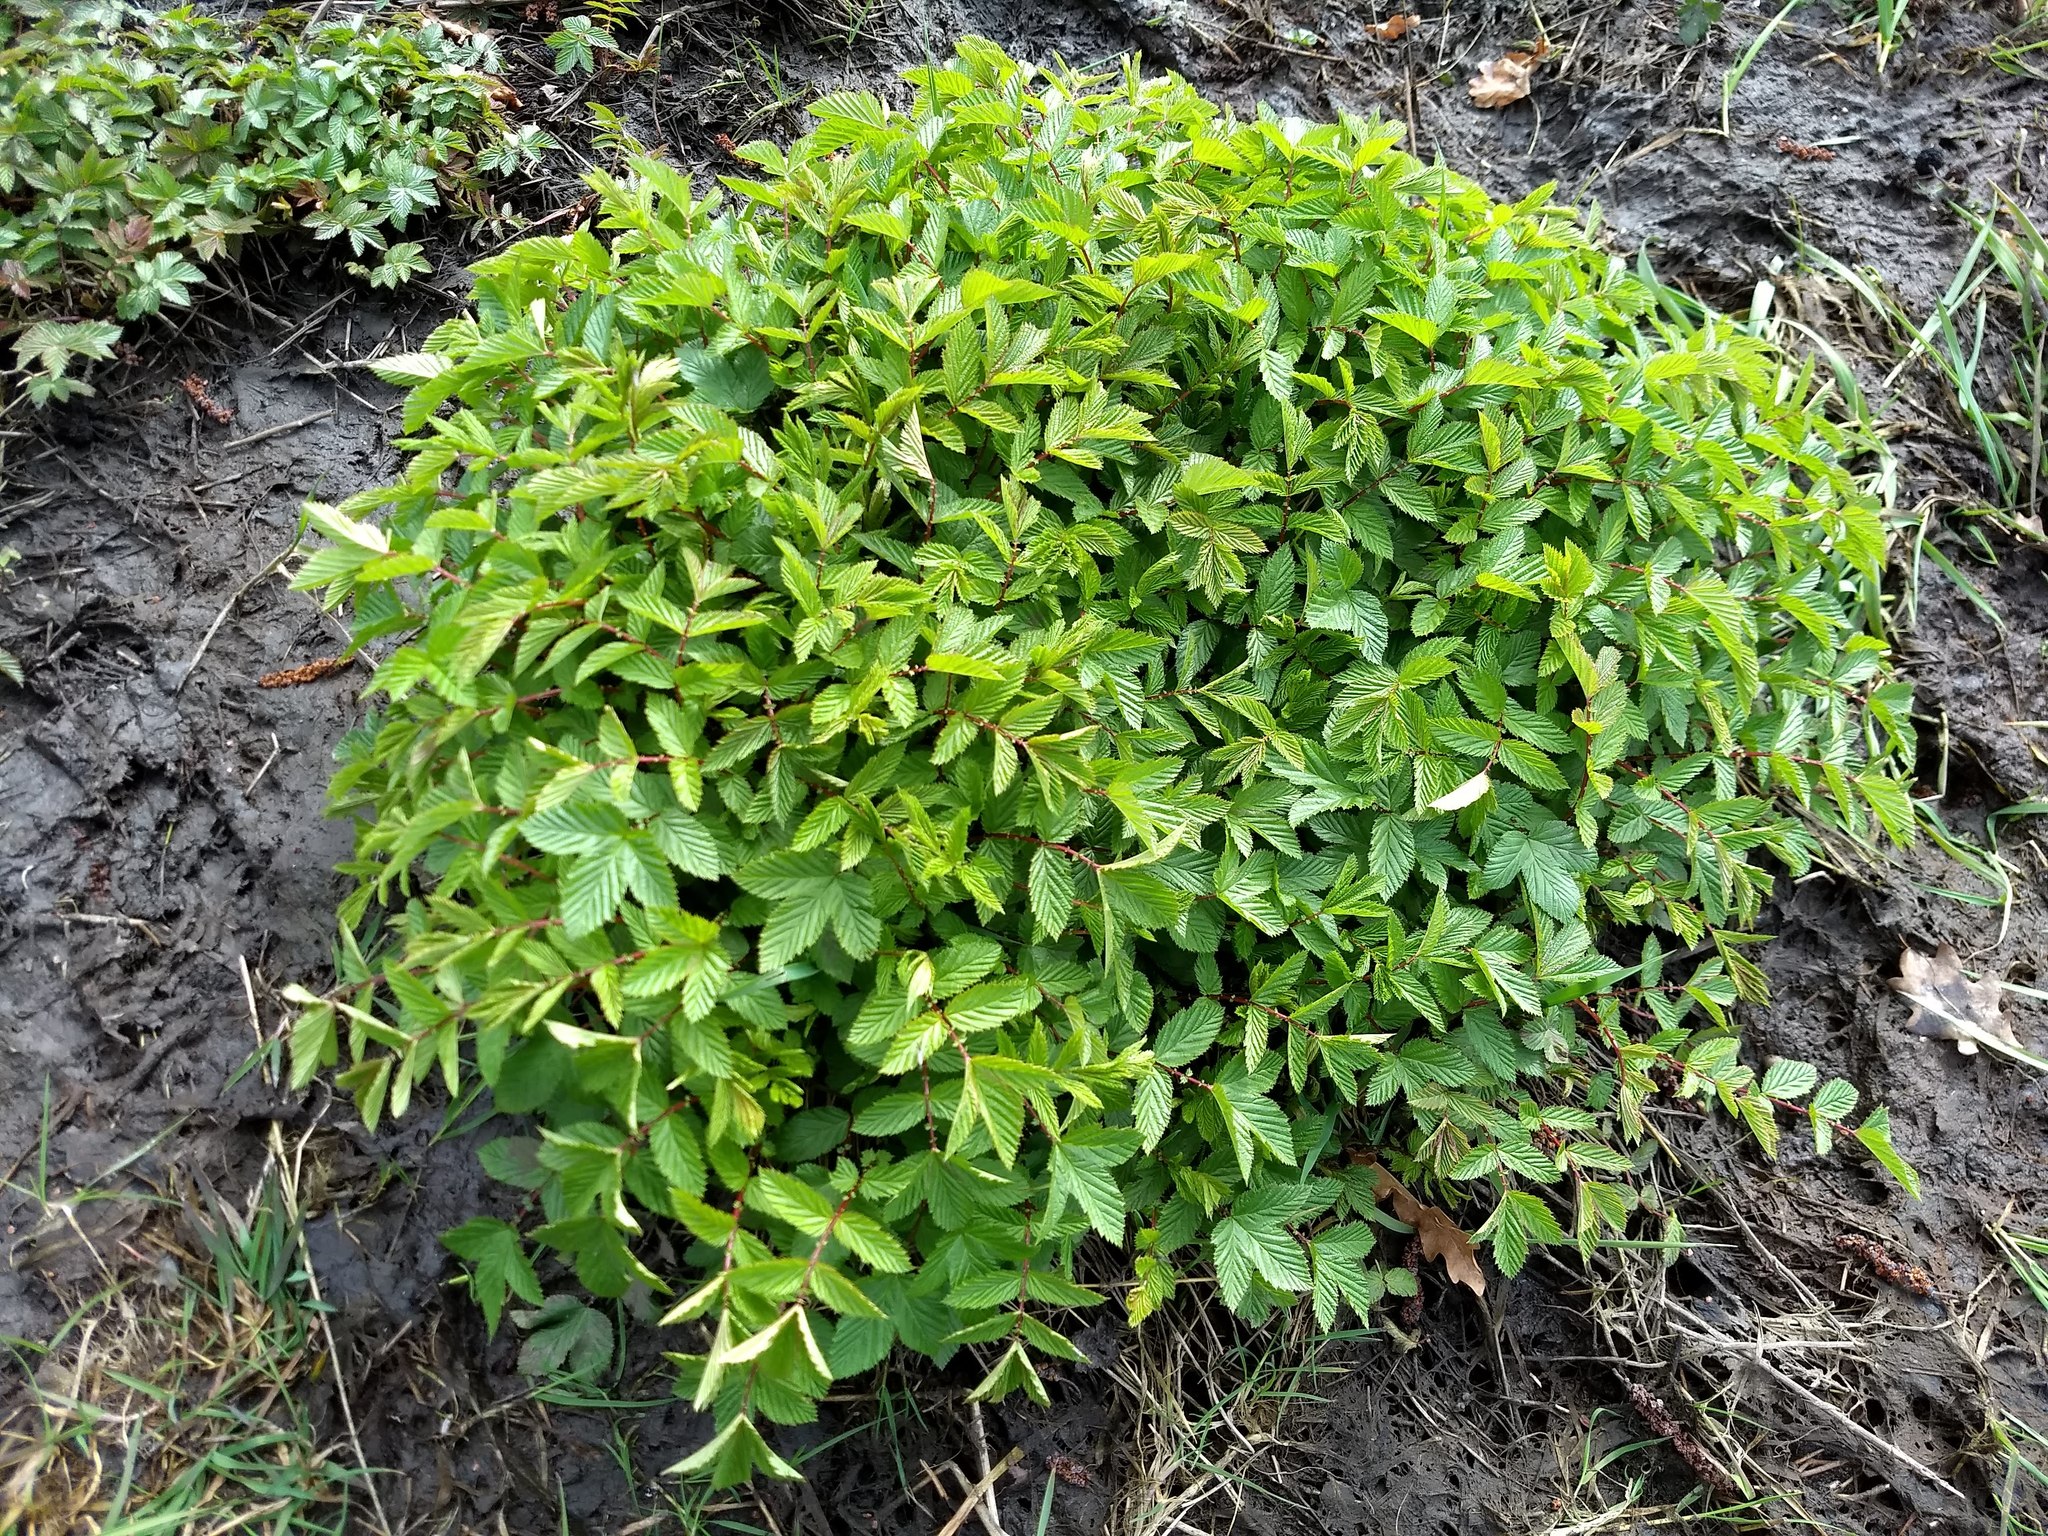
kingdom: Plantae
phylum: Tracheophyta
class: Magnoliopsida
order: Rosales
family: Rosaceae
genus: Filipendula
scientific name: Filipendula ulmaria
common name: Meadowsweet
